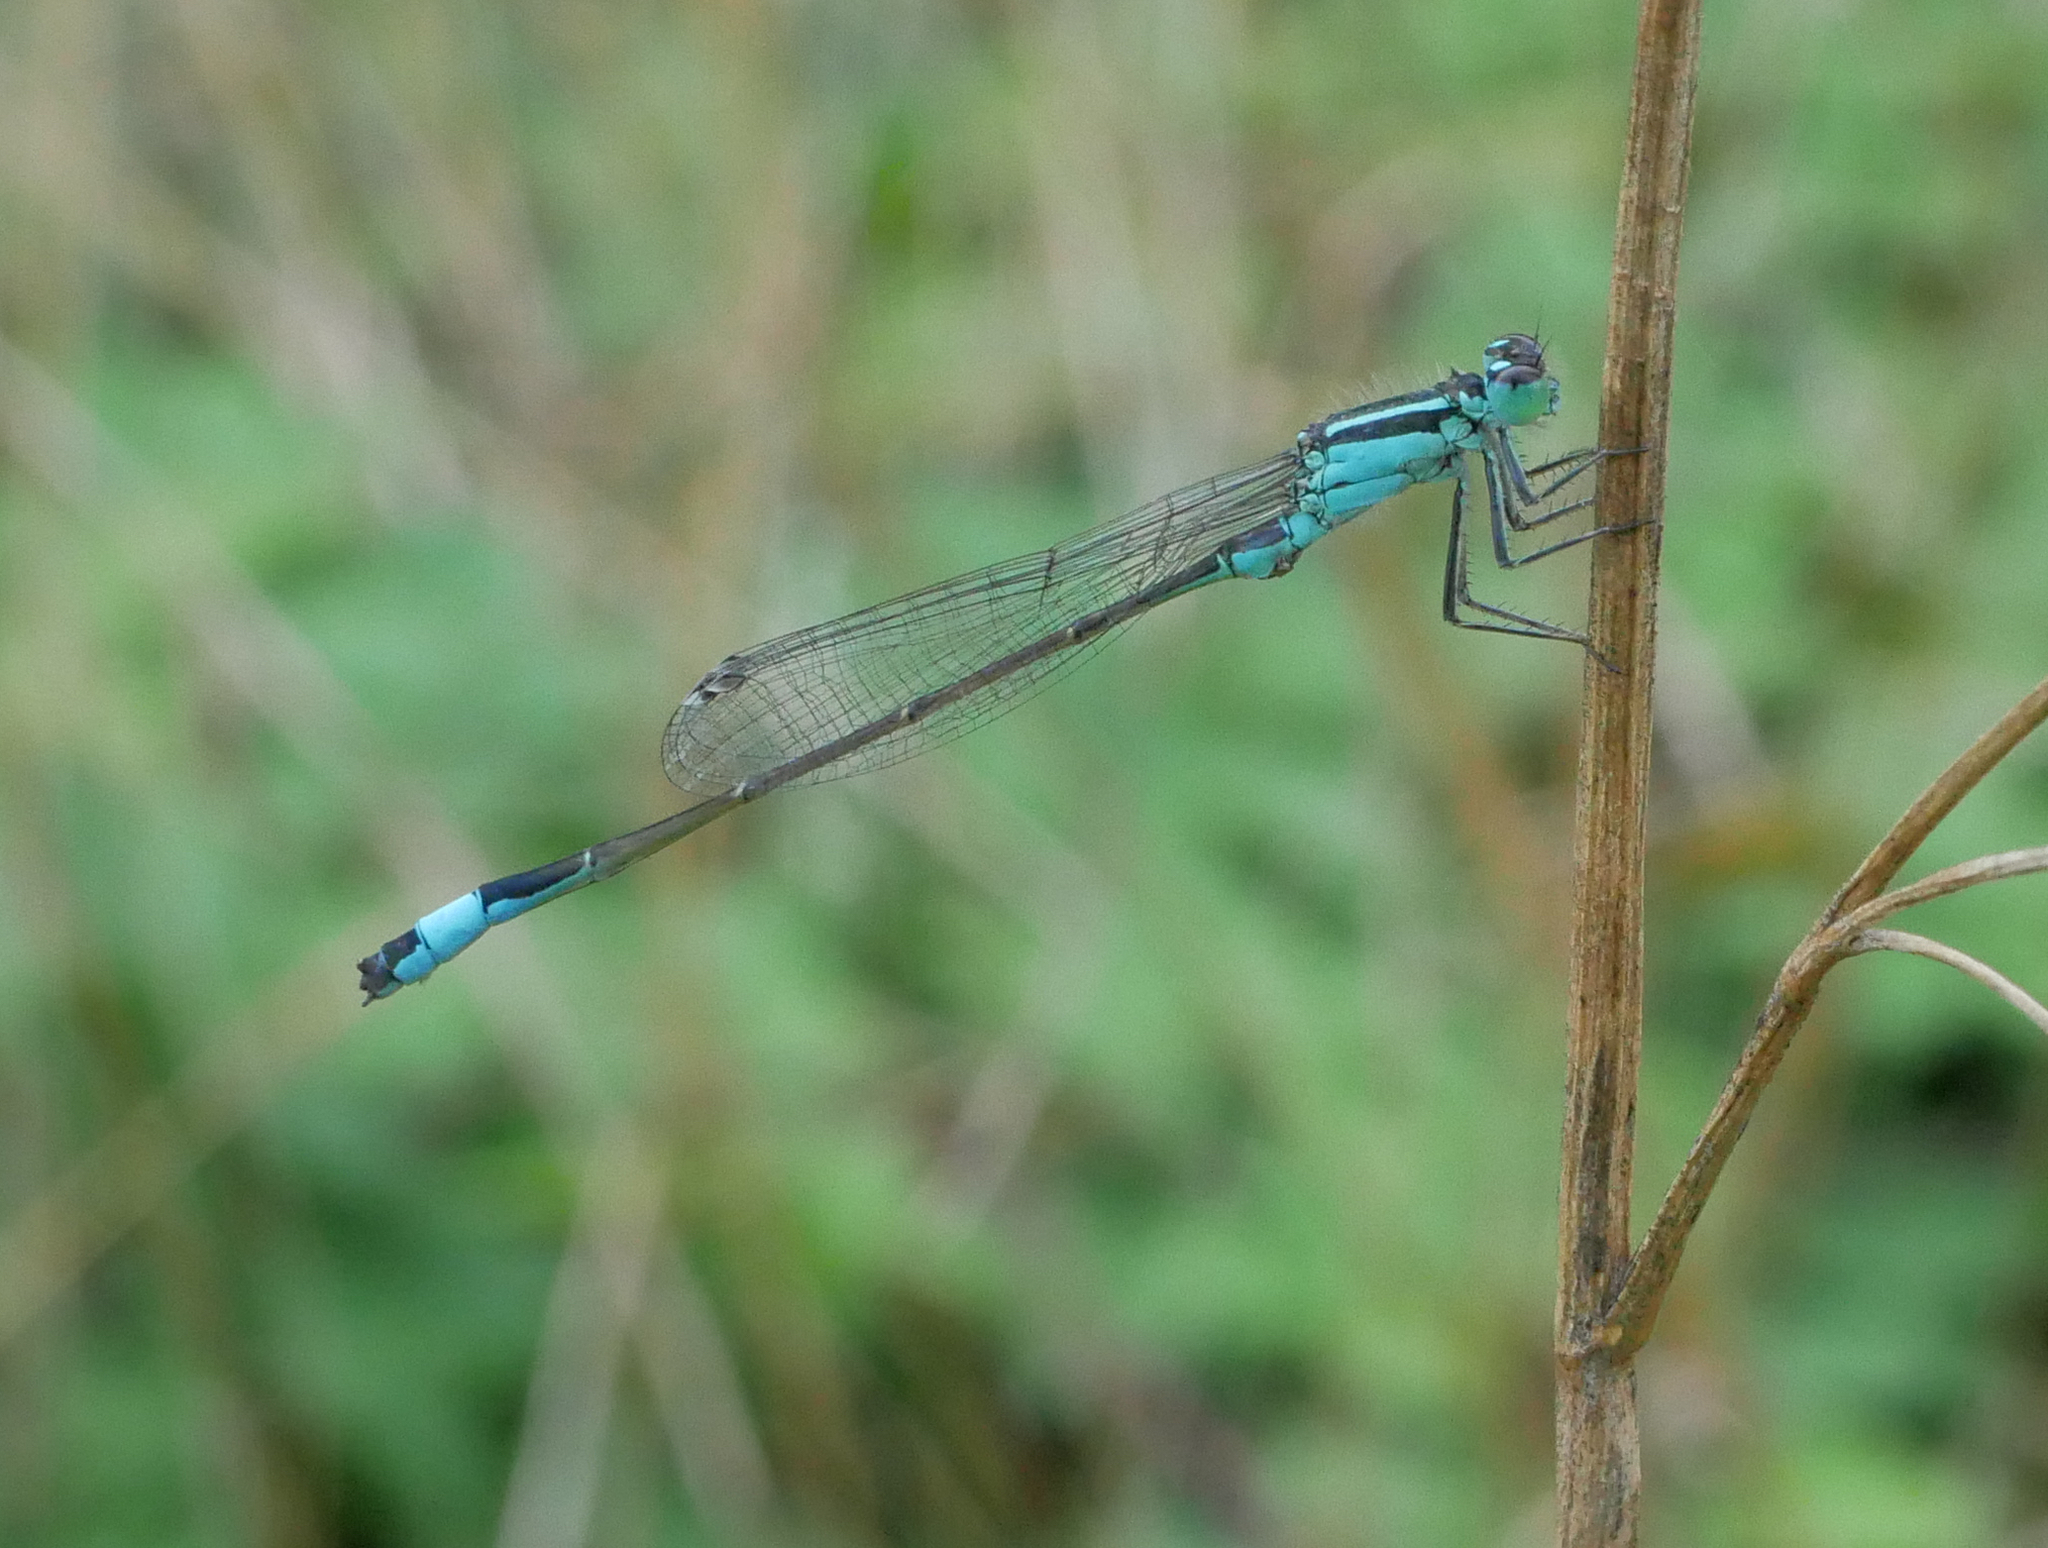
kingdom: Animalia
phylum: Arthropoda
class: Insecta
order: Odonata
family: Coenagrionidae
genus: Ischnura
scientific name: Ischnura elegans
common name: Blue-tailed damselfly
